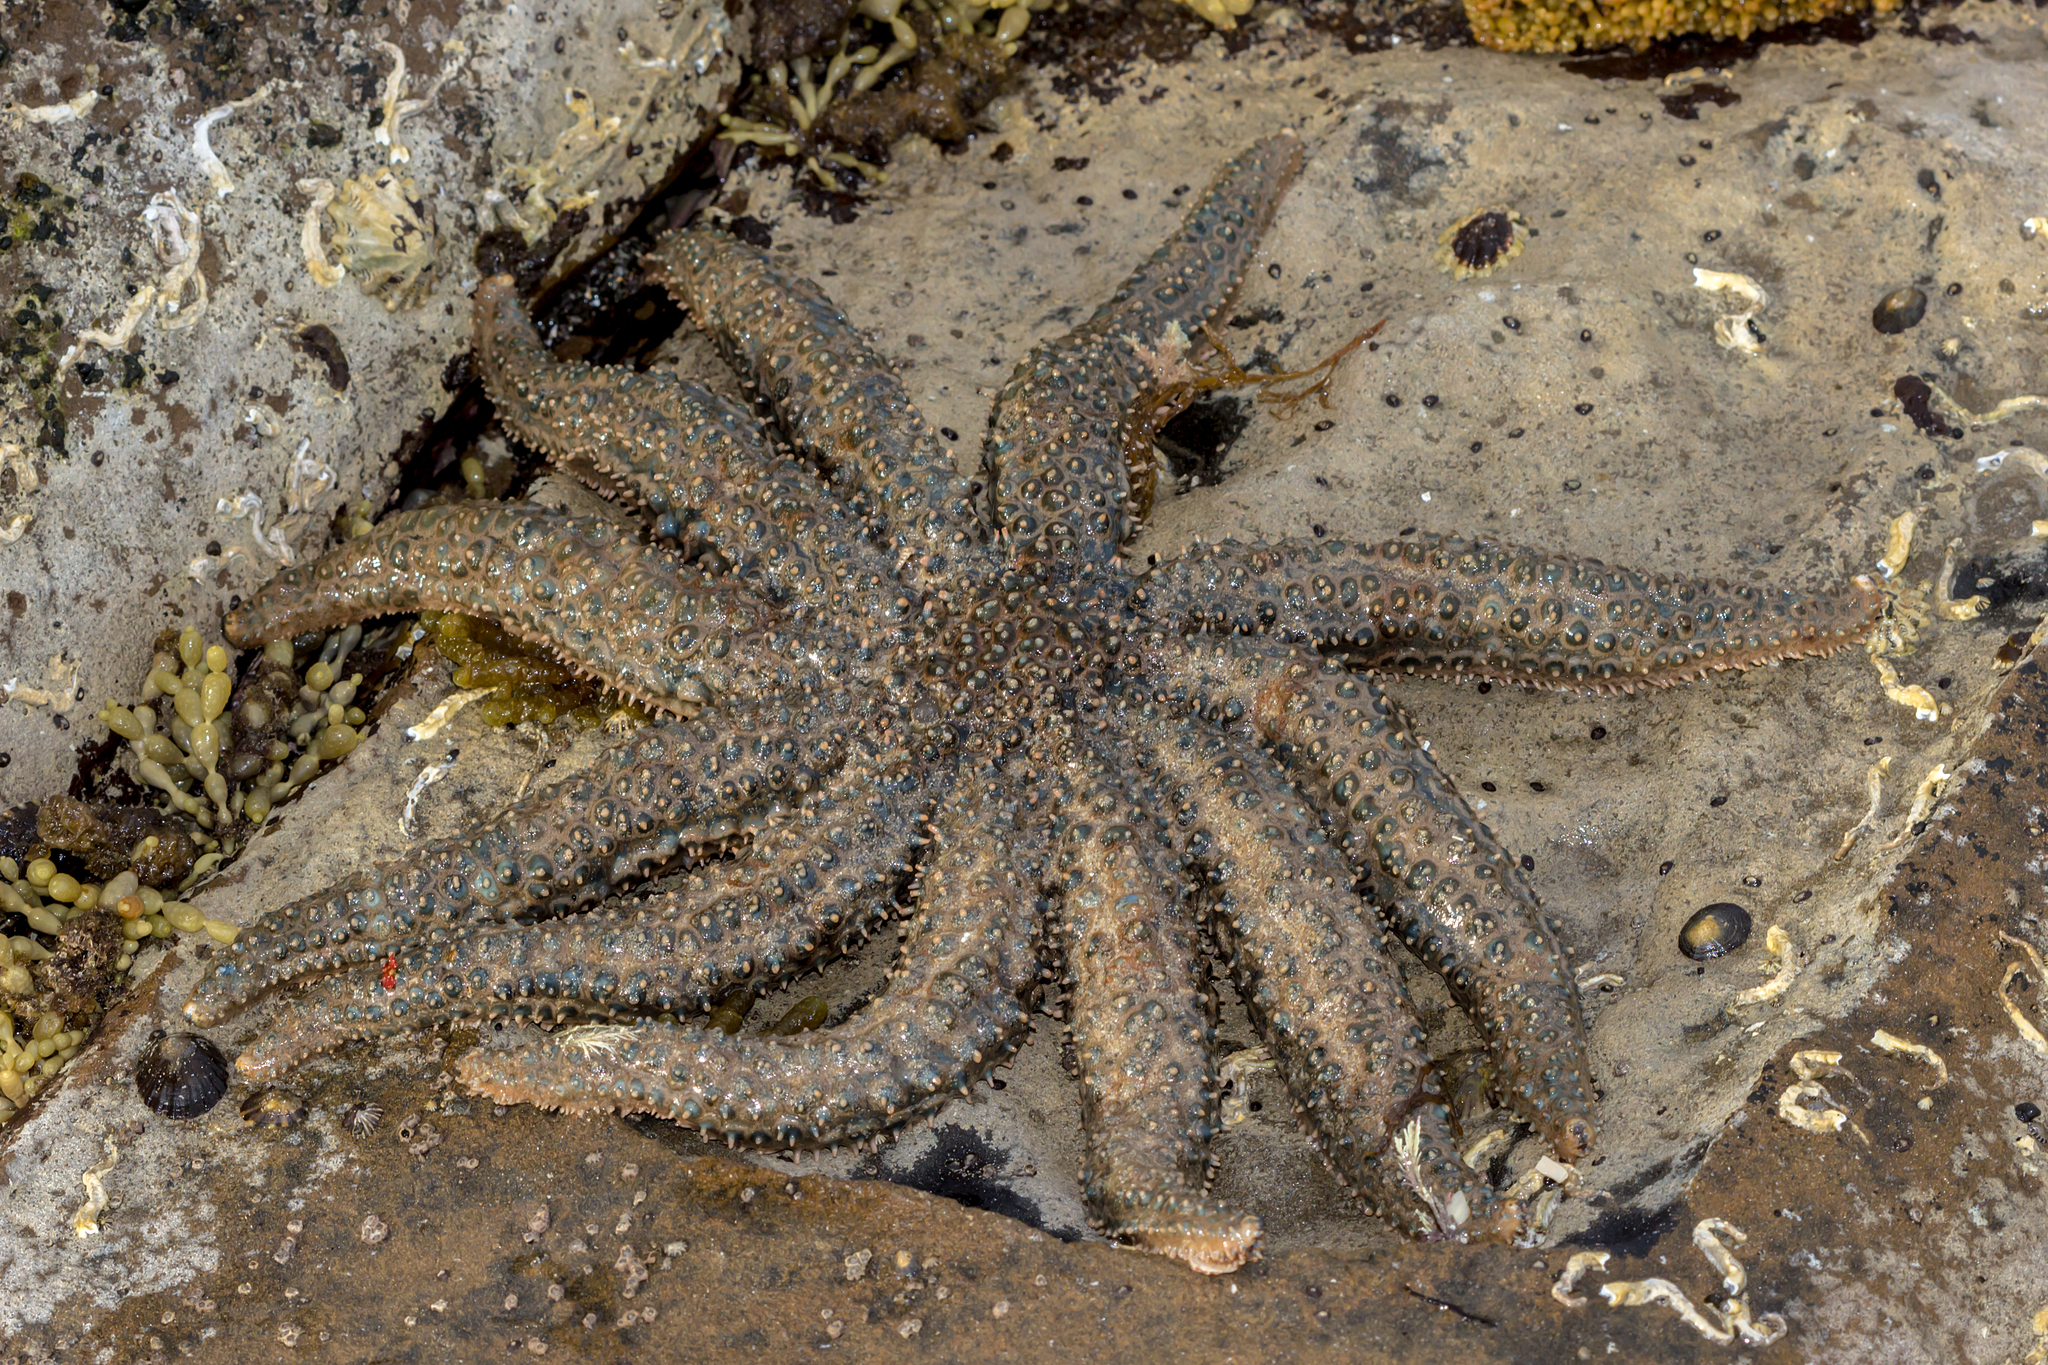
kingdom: Animalia
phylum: Echinodermata
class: Asteroidea
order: Forcipulatida
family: Asteriidae
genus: Coscinasterias
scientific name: Coscinasterias muricata
